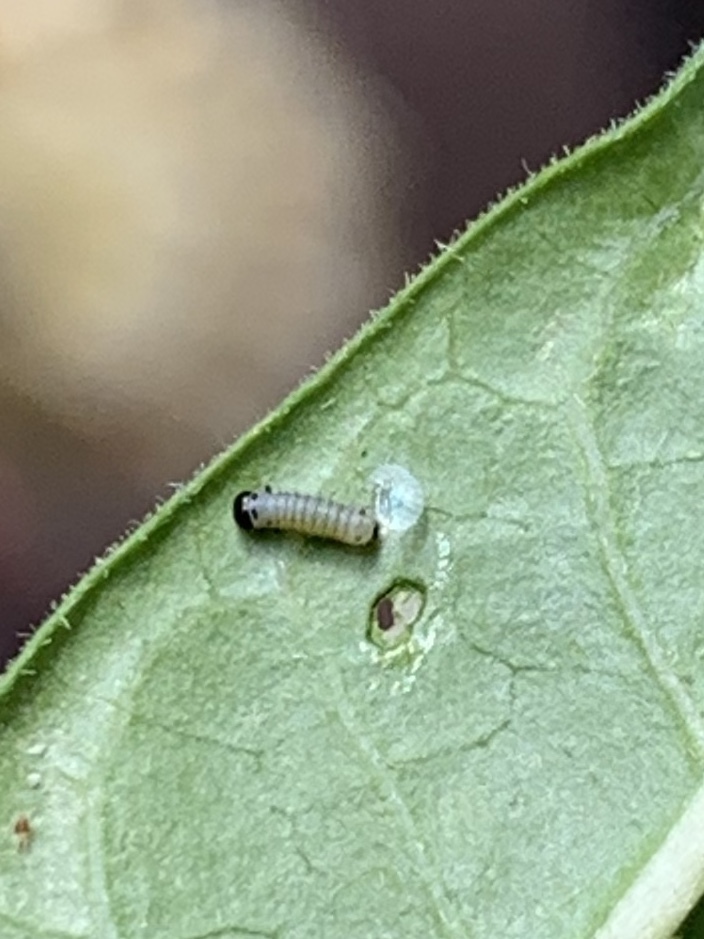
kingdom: Animalia
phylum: Arthropoda
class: Insecta
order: Lepidoptera
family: Nymphalidae
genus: Danaus
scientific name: Danaus plexippus
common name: Monarch
